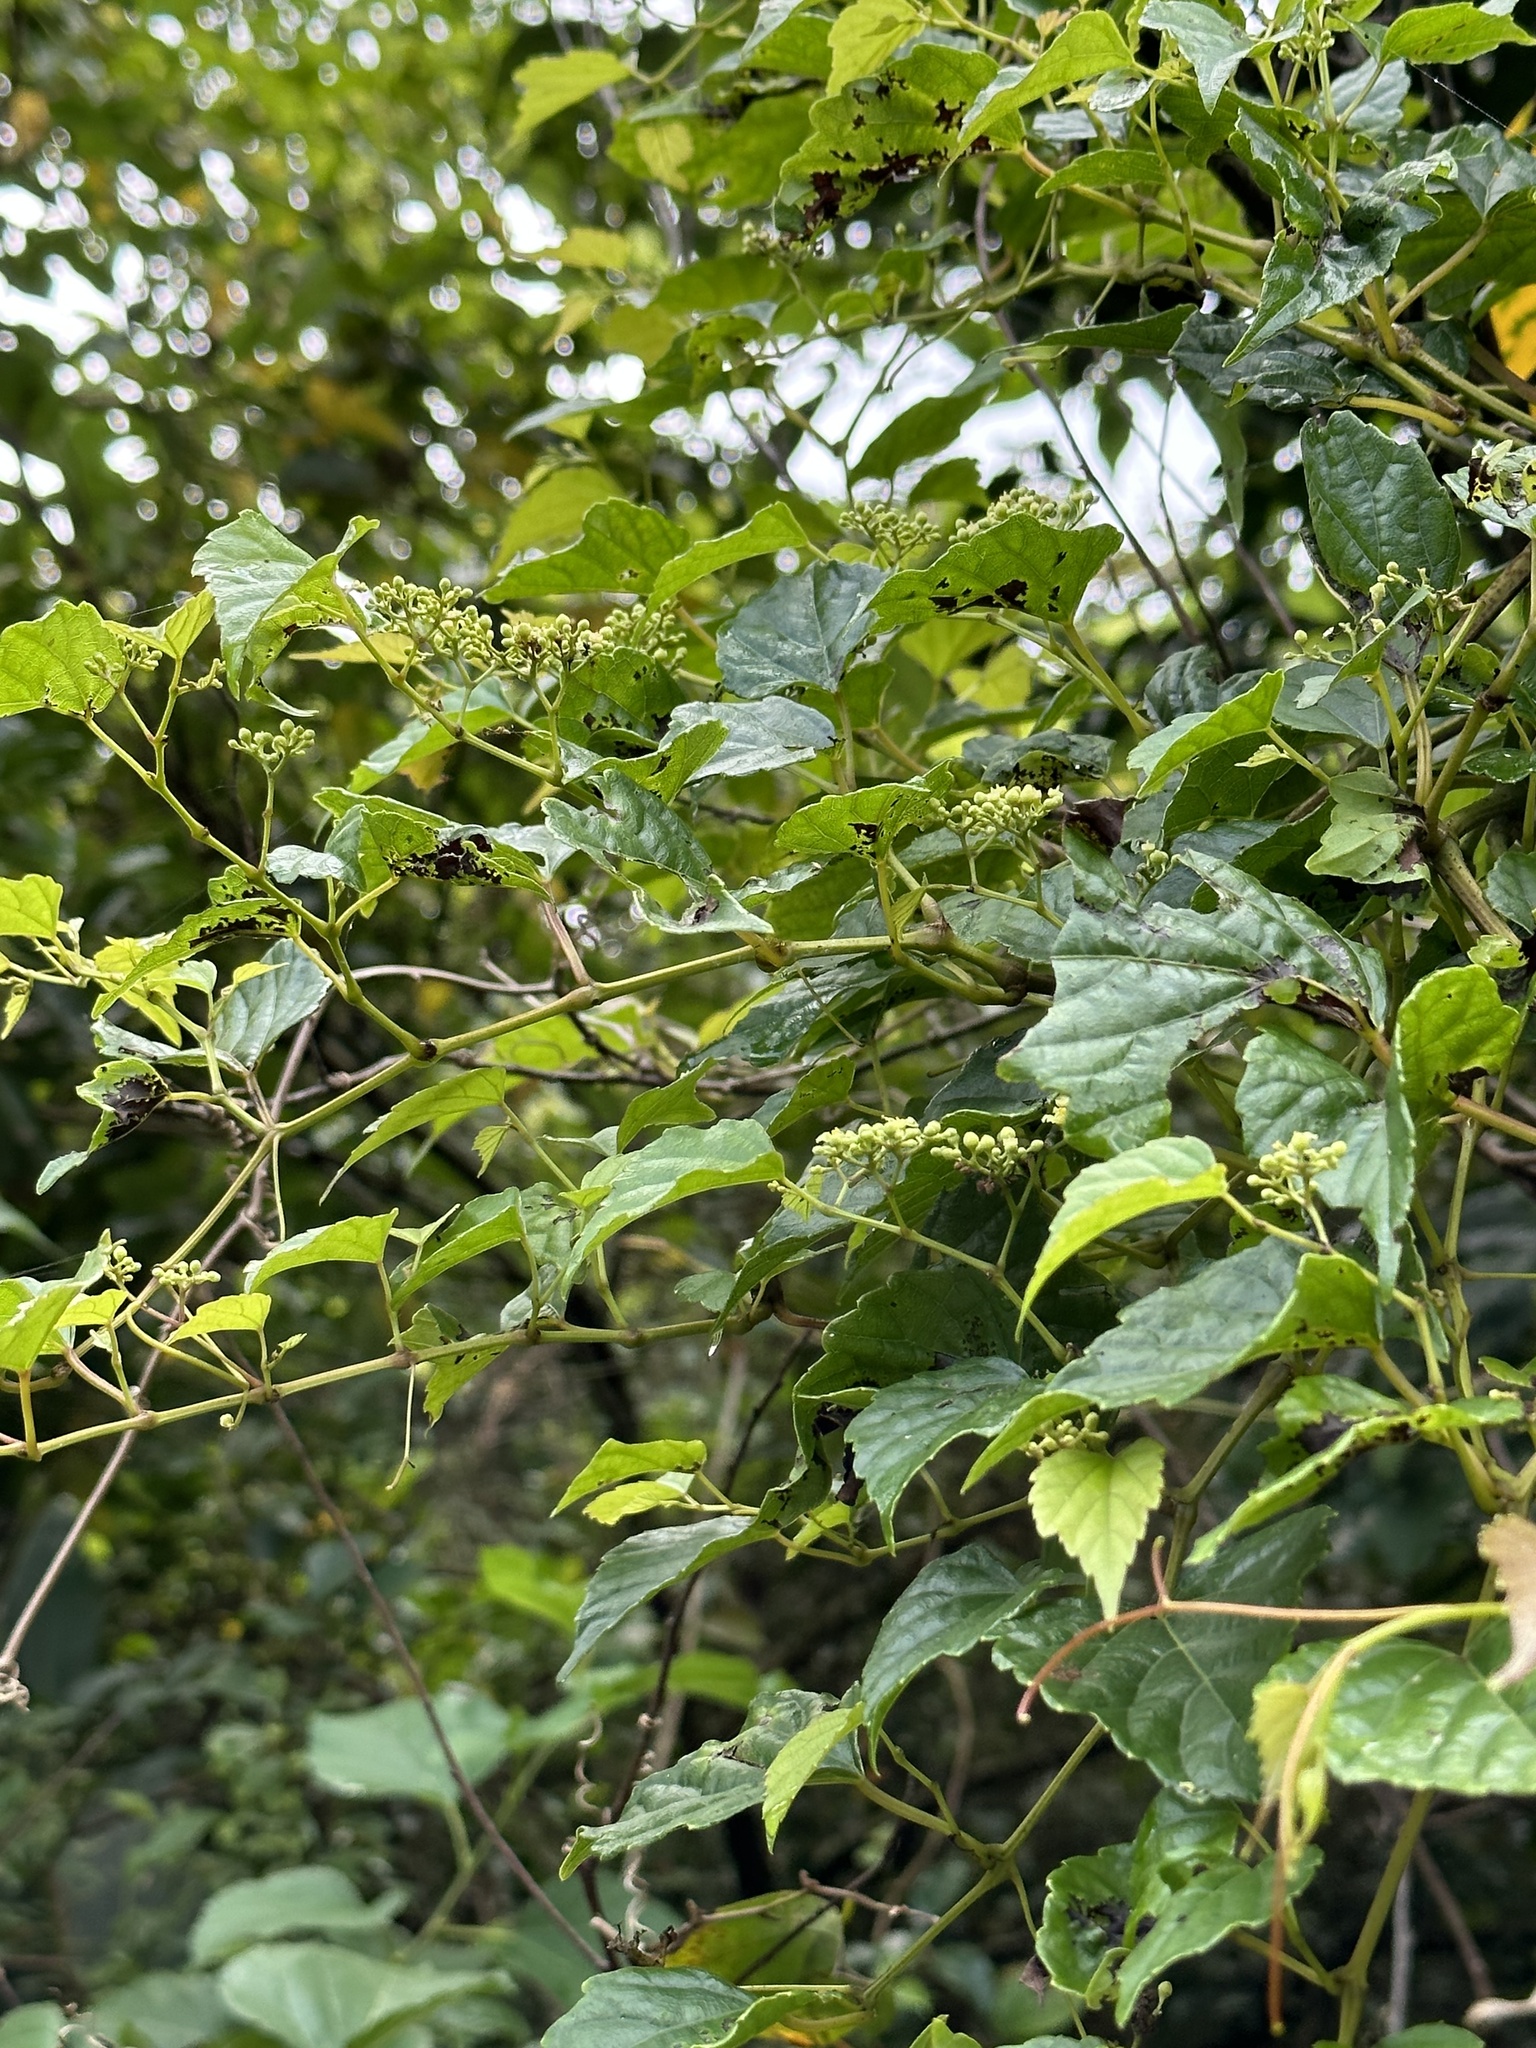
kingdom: Plantae
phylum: Tracheophyta
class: Magnoliopsida
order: Vitales
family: Vitaceae
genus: Ampelopsis
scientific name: Ampelopsis glandulosa
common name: Amur peppervine
